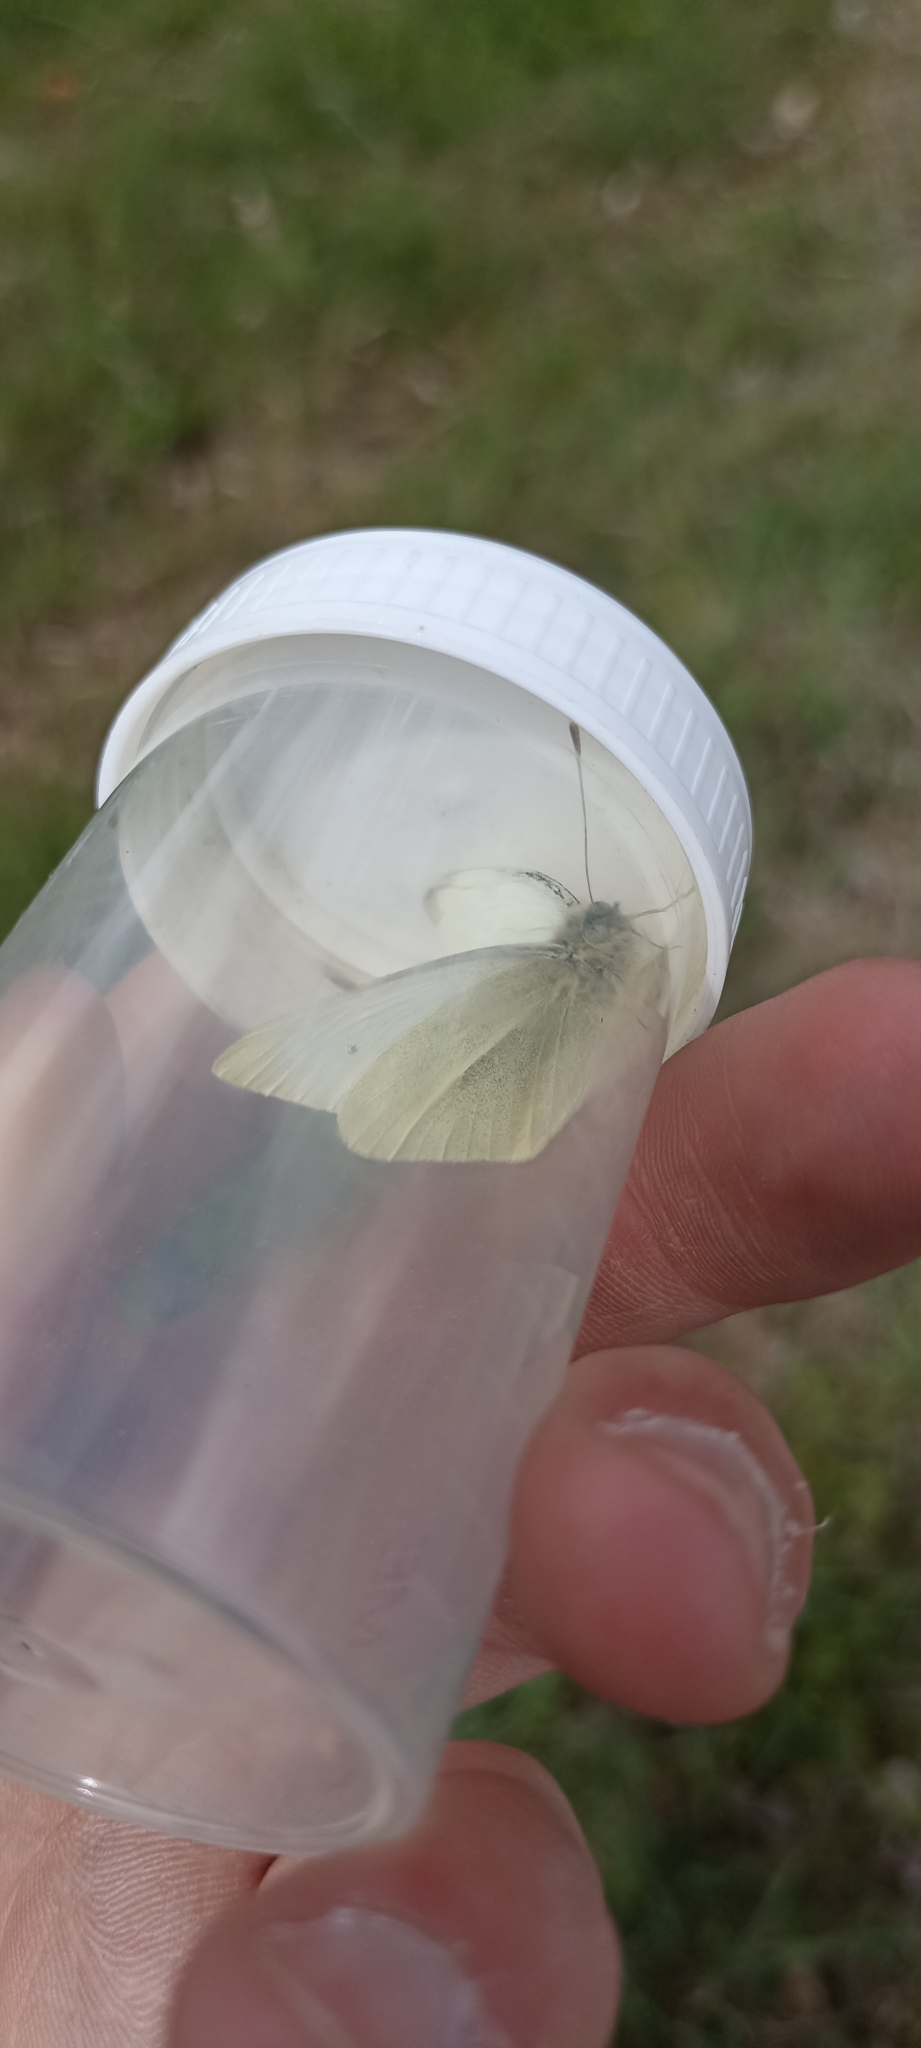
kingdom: Animalia
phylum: Arthropoda
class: Insecta
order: Lepidoptera
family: Pieridae
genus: Pieris
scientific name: Pieris rapae
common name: Small white
